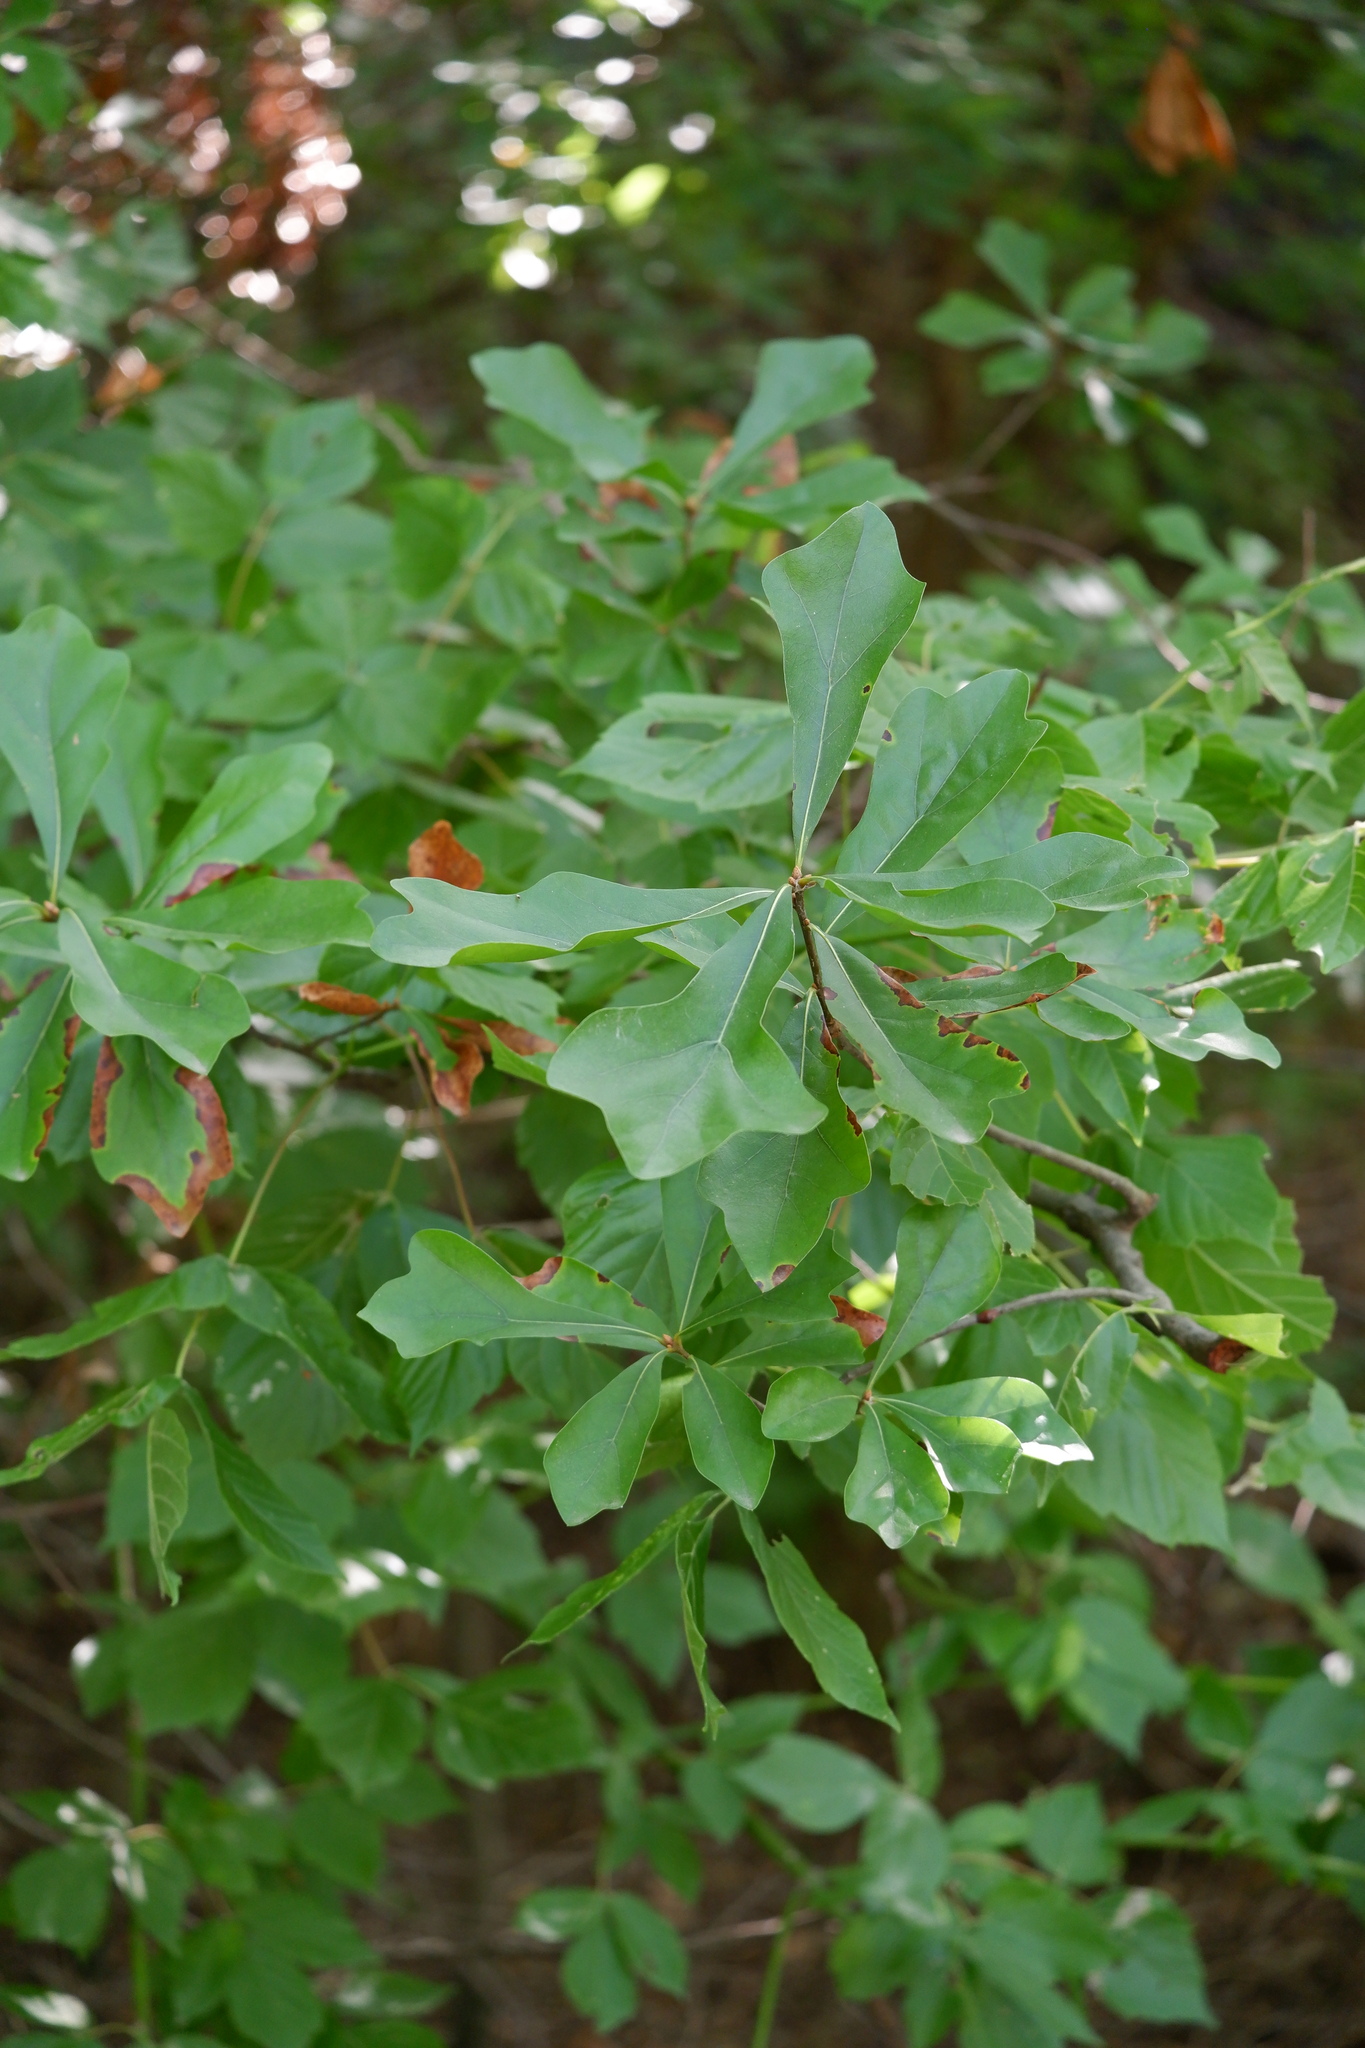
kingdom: Plantae
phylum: Tracheophyta
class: Magnoliopsida
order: Fagales
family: Fagaceae
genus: Quercus
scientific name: Quercus nigra
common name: Water oak
